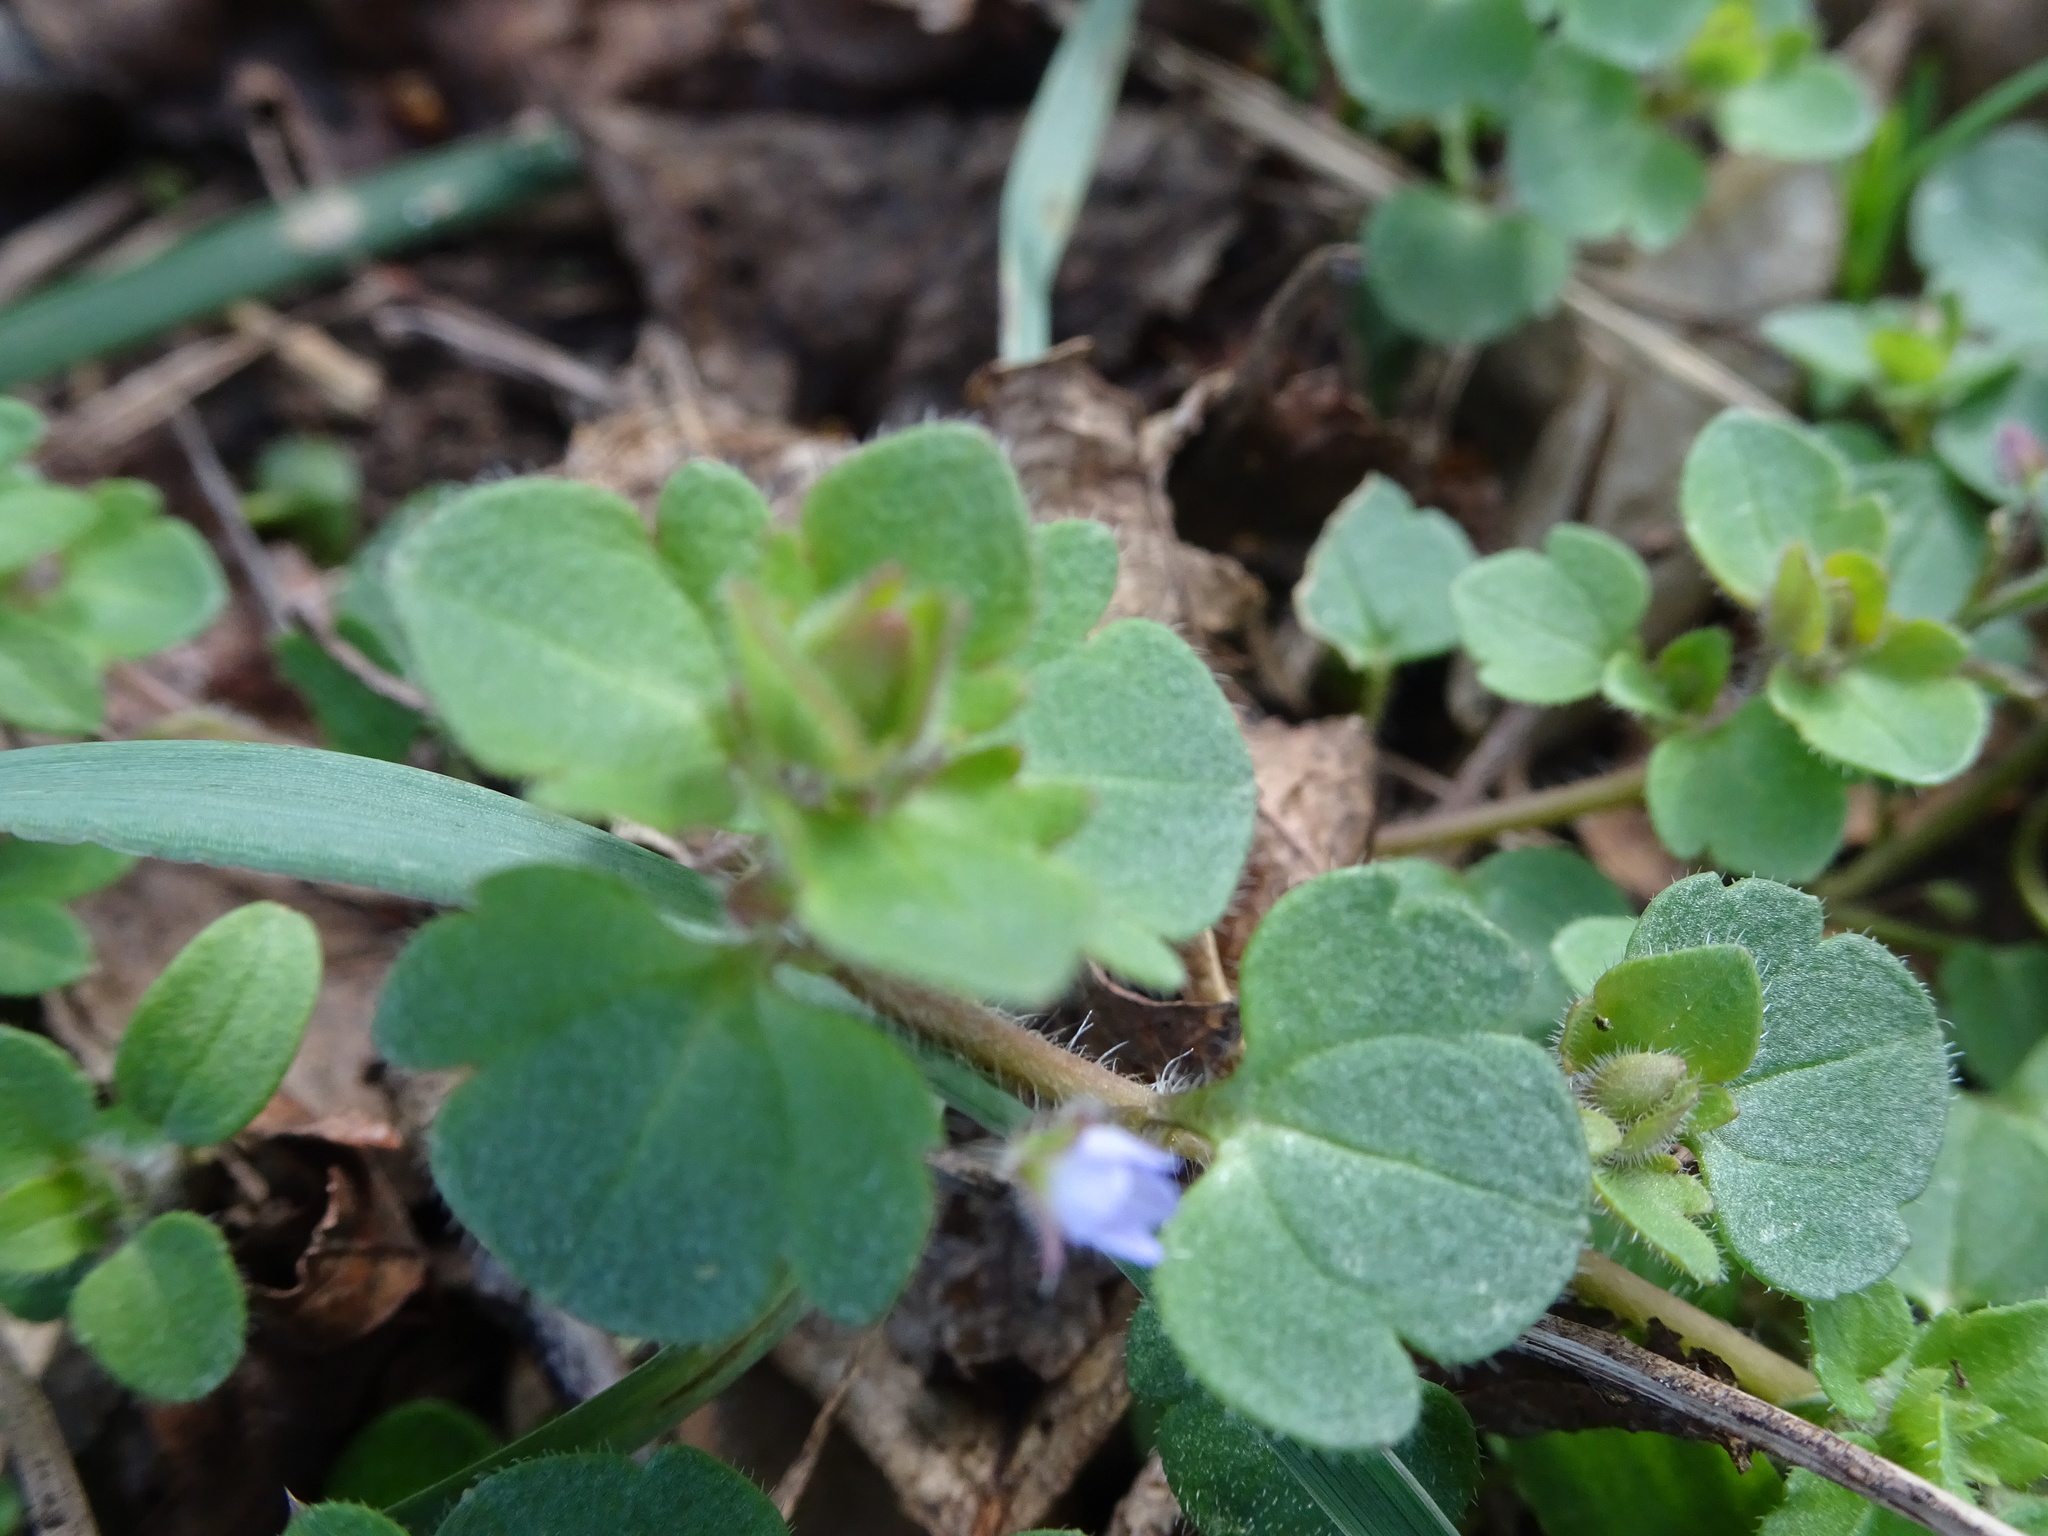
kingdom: Plantae
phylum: Tracheophyta
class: Magnoliopsida
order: Lamiales
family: Plantaginaceae
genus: Veronica
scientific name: Veronica hederifolia
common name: Ivy-leaved speedwell
